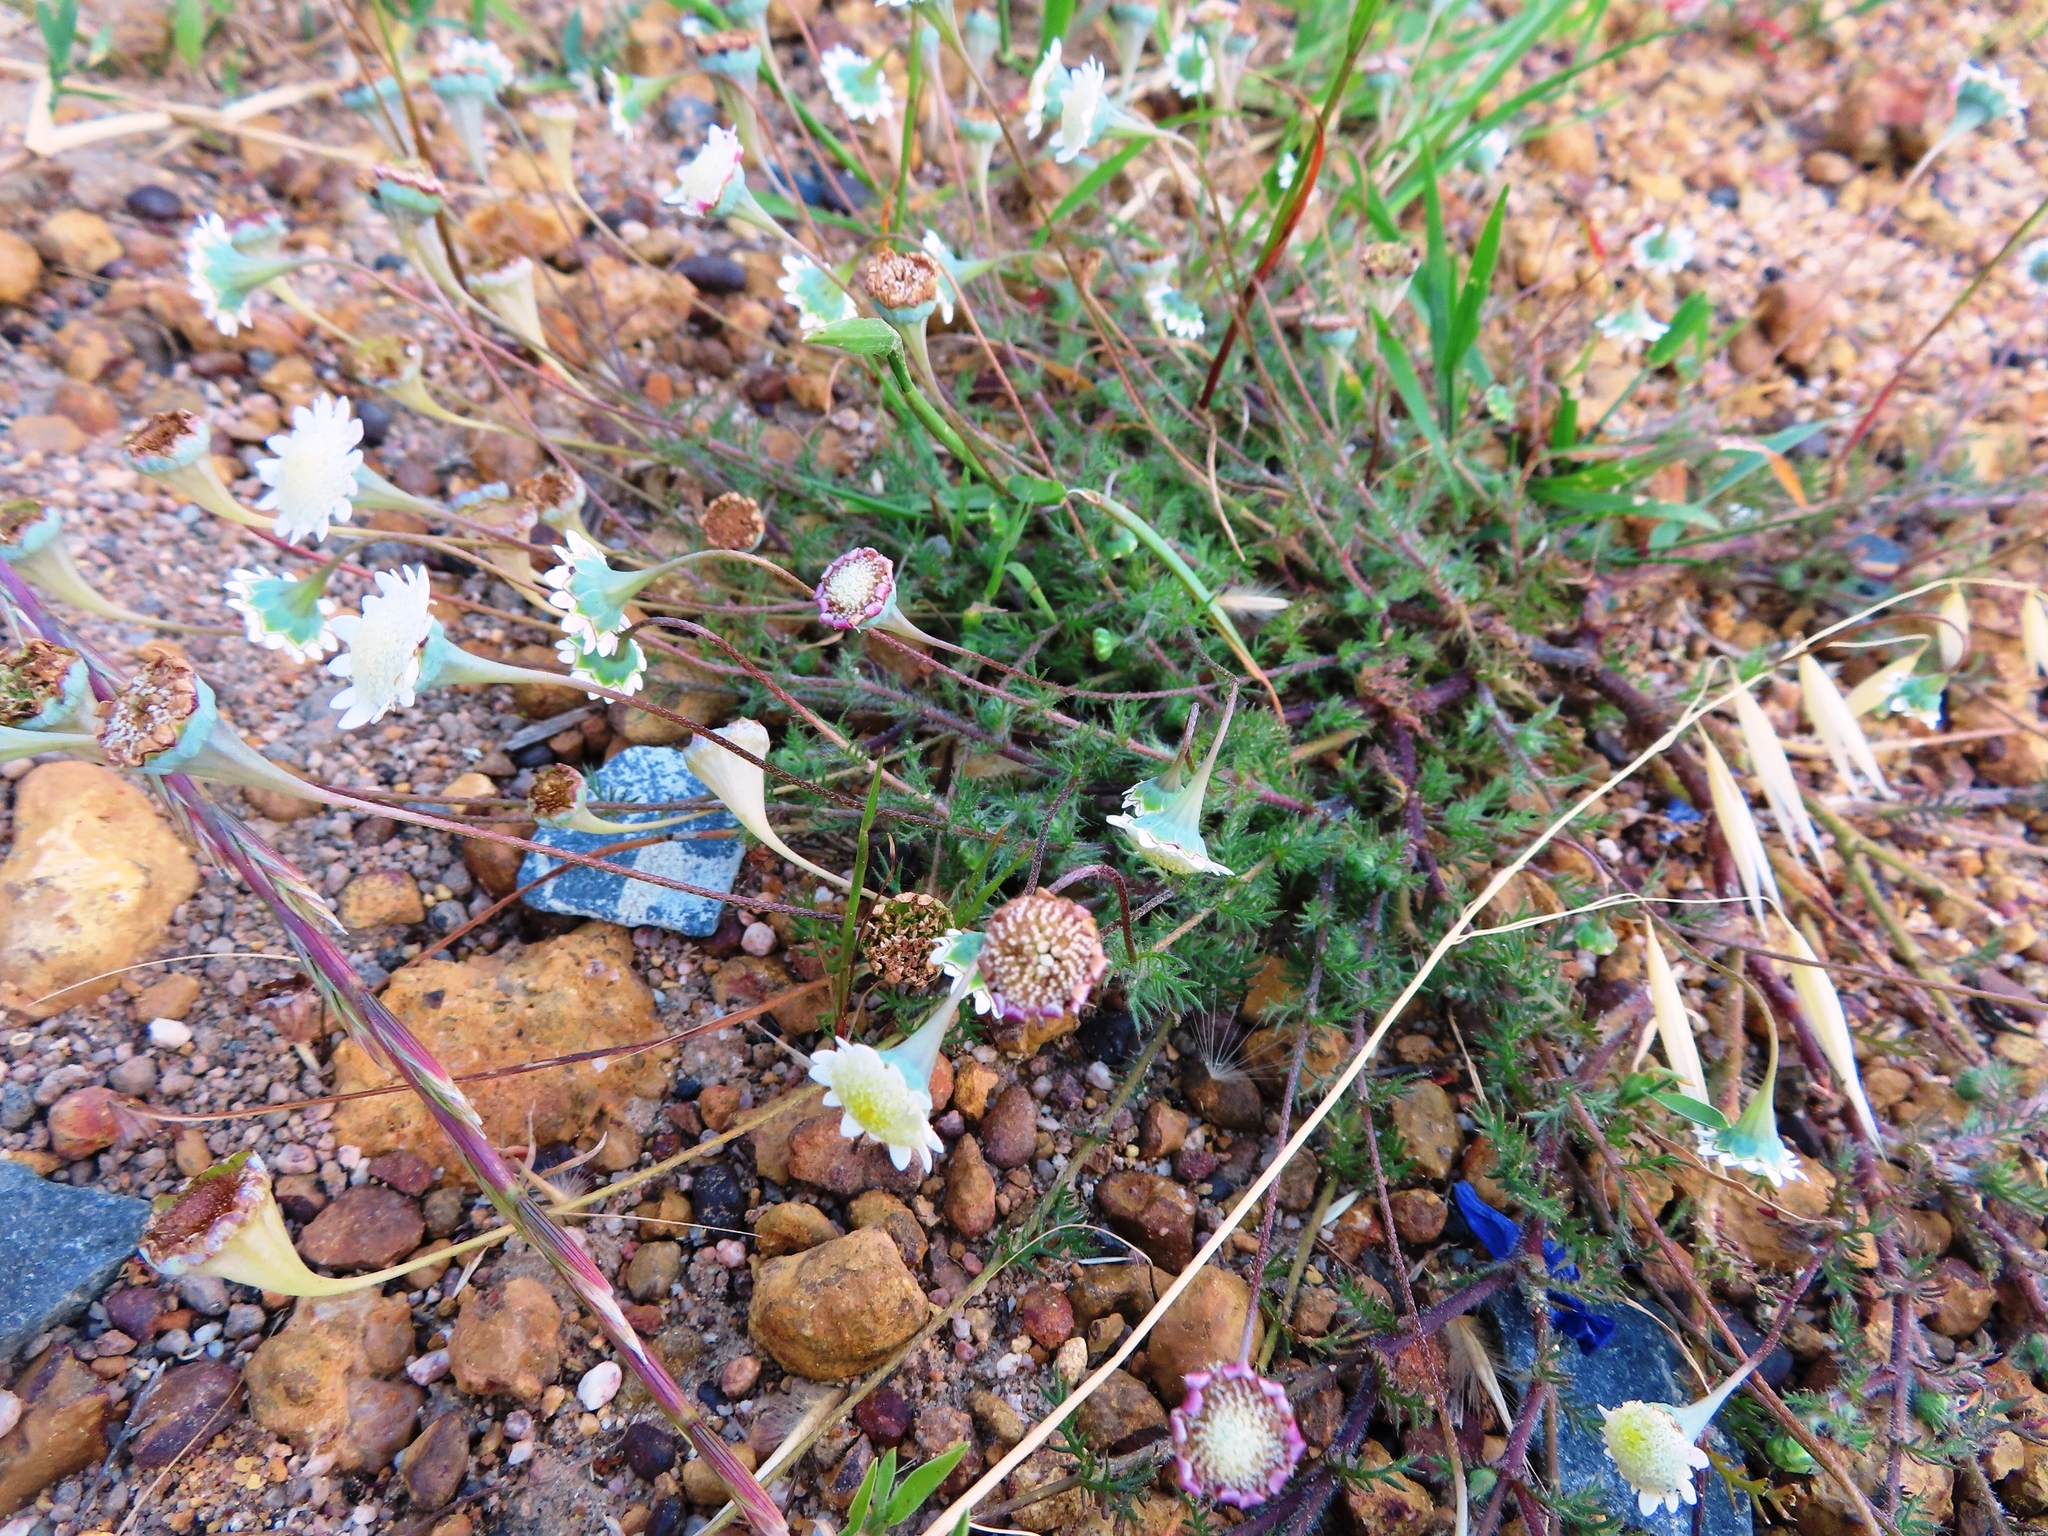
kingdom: Plantae
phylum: Tracheophyta
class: Magnoliopsida
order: Asterales
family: Asteraceae
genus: Cotula
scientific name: Cotula turbinata
